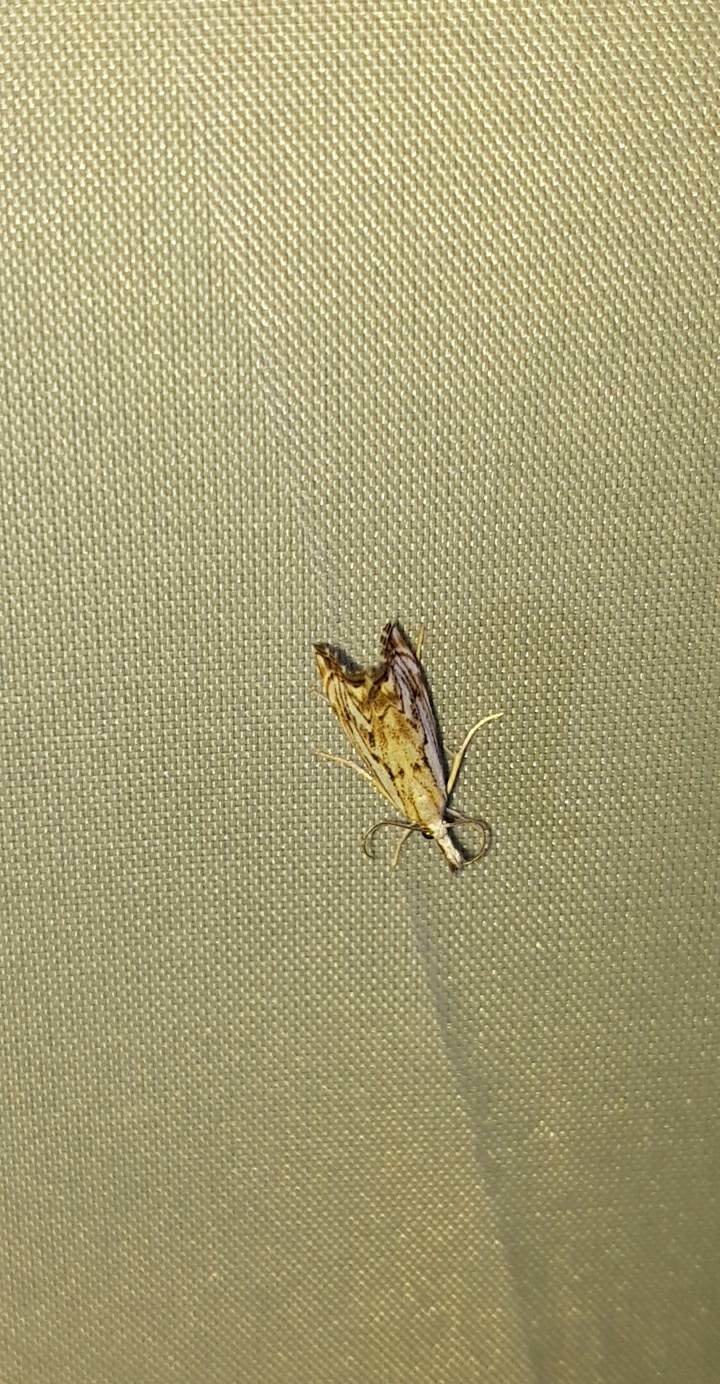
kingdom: Animalia
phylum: Arthropoda
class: Insecta
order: Lepidoptera
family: Crambidae
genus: Catoptria
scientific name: Catoptria falsella
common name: Chequered grass-veneer
